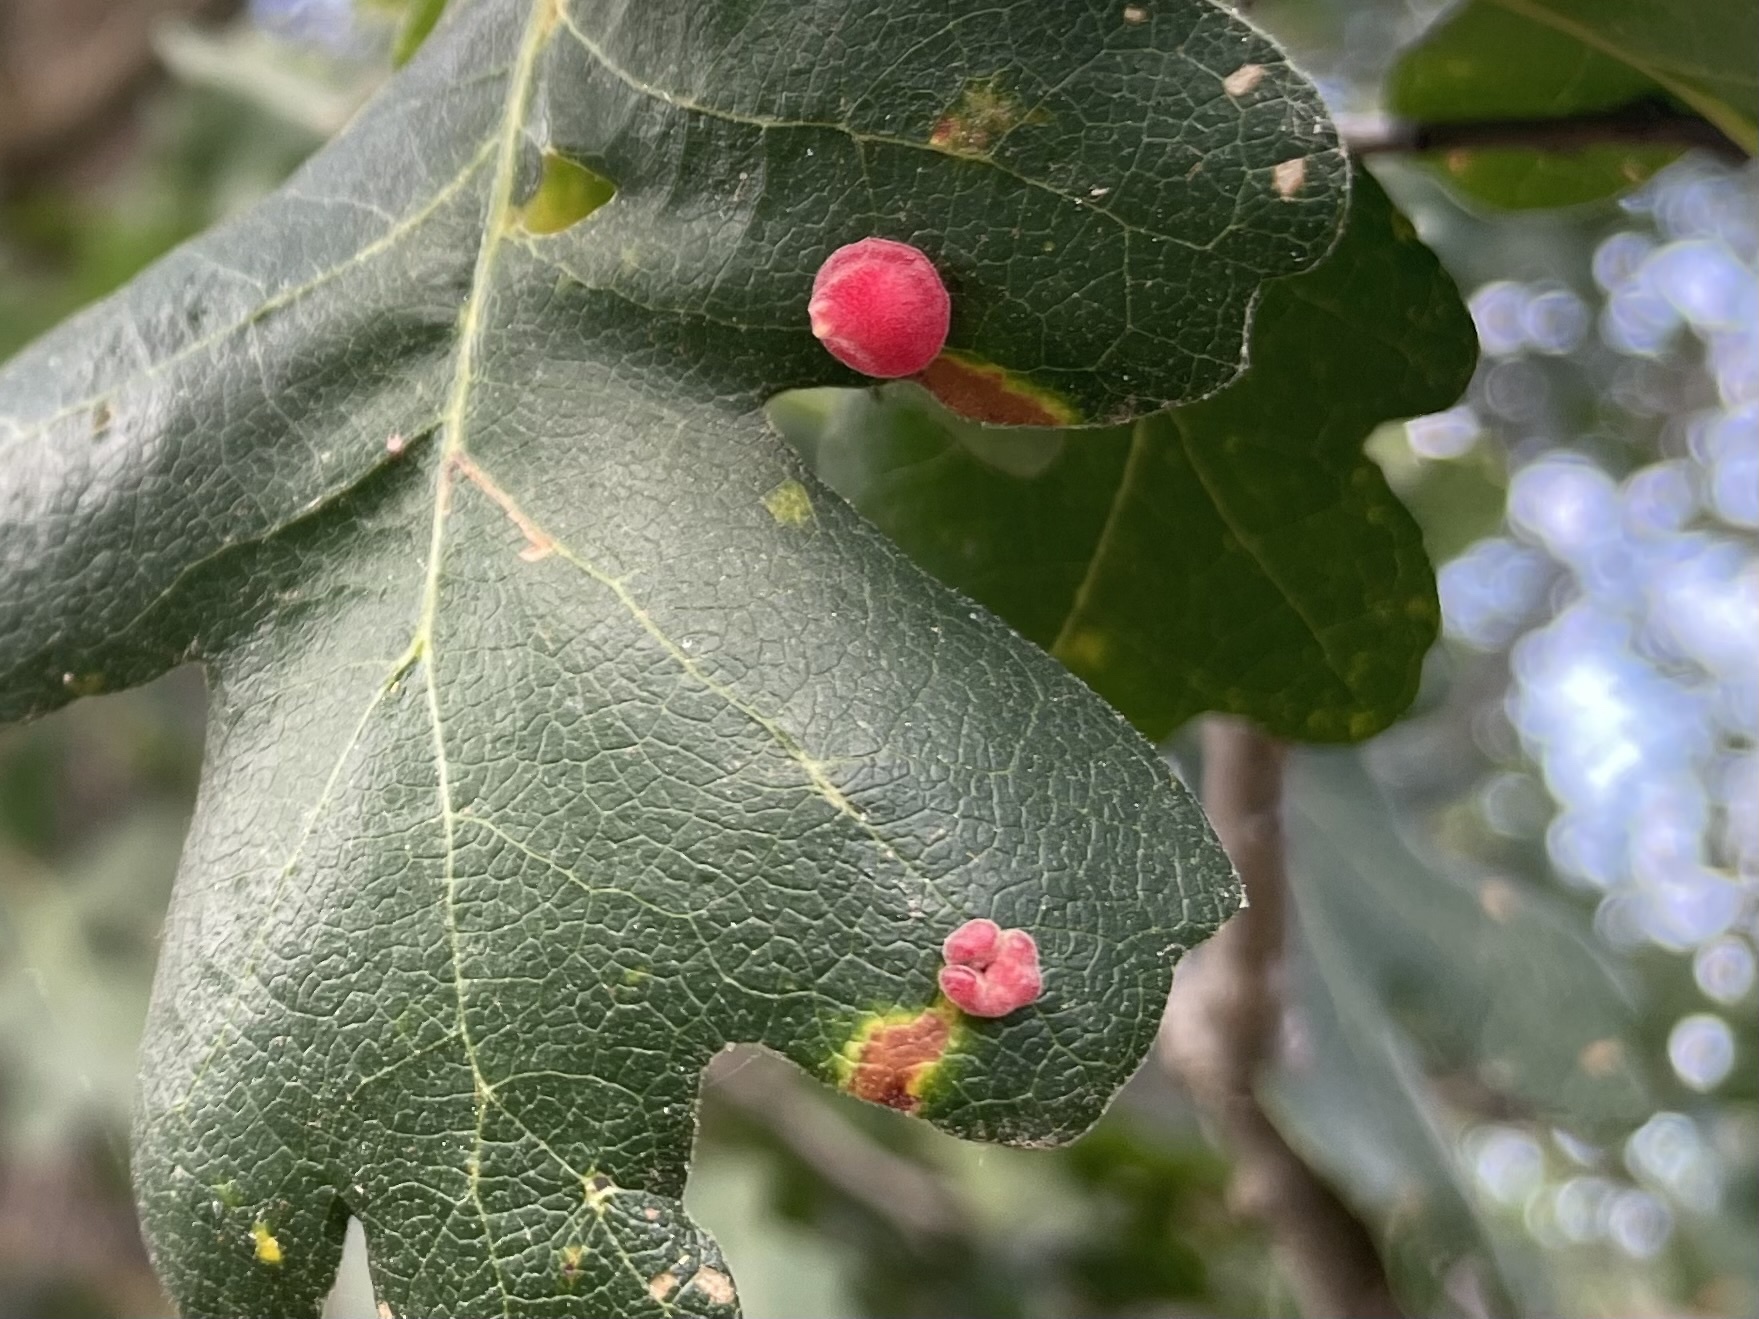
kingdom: Animalia
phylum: Arthropoda
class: Insecta
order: Hymenoptera
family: Cynipidae
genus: Andricus
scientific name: Andricus
